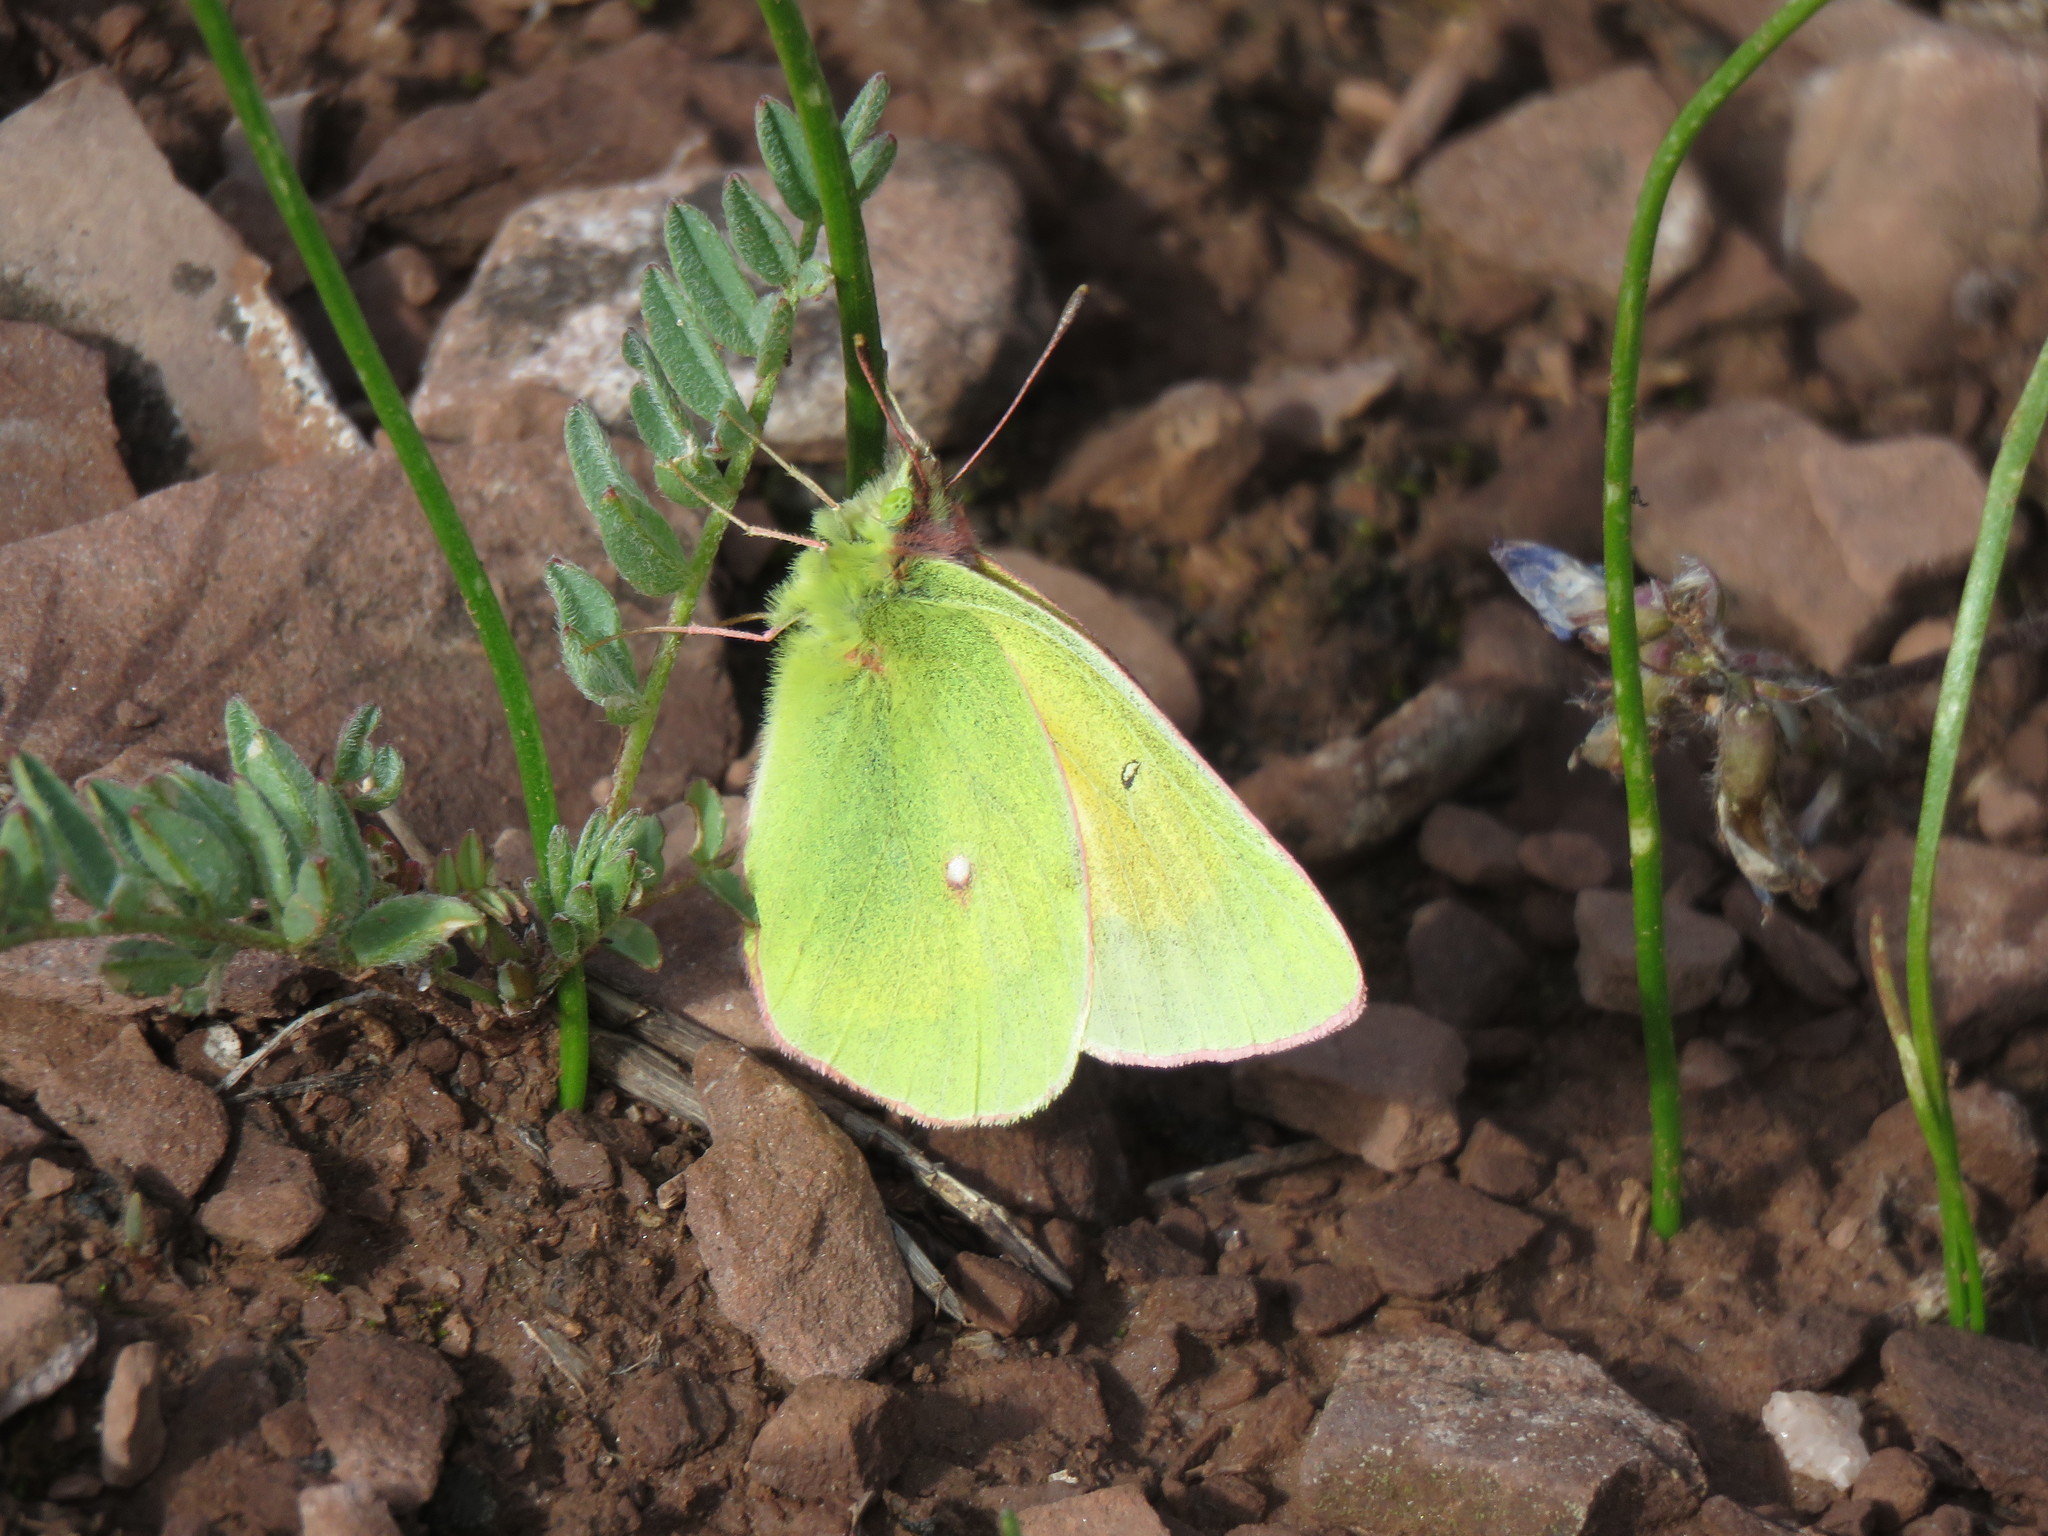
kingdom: Animalia
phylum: Arthropoda
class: Insecta
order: Lepidoptera
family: Pieridae
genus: Colias
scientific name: Colias meadii
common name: Mead's sulphur
